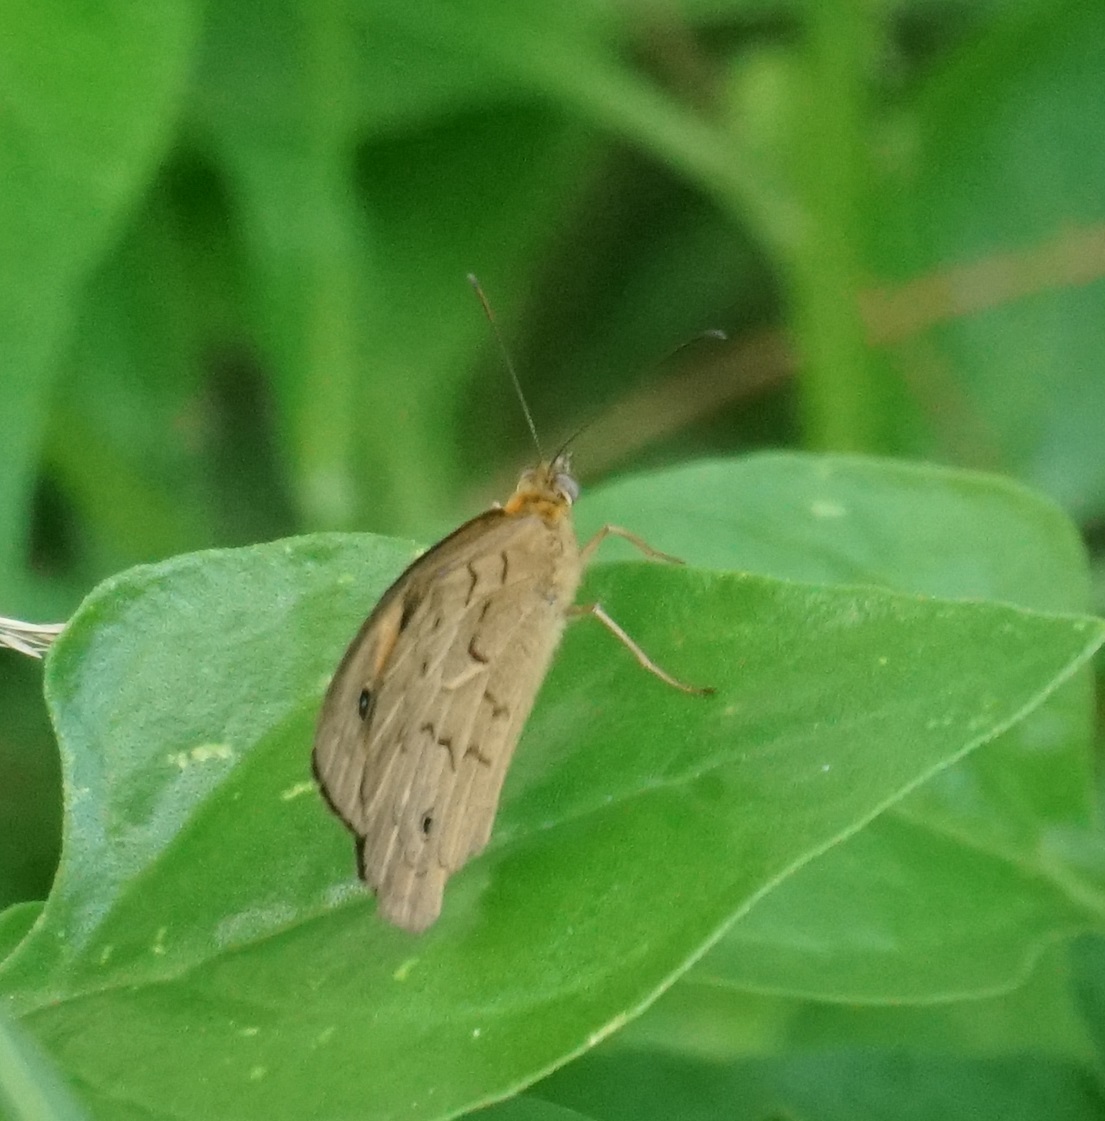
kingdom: Animalia
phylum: Arthropoda
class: Insecta
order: Lepidoptera
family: Nymphalidae
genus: Heteronympha
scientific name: Heteronympha merope
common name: Common brown
